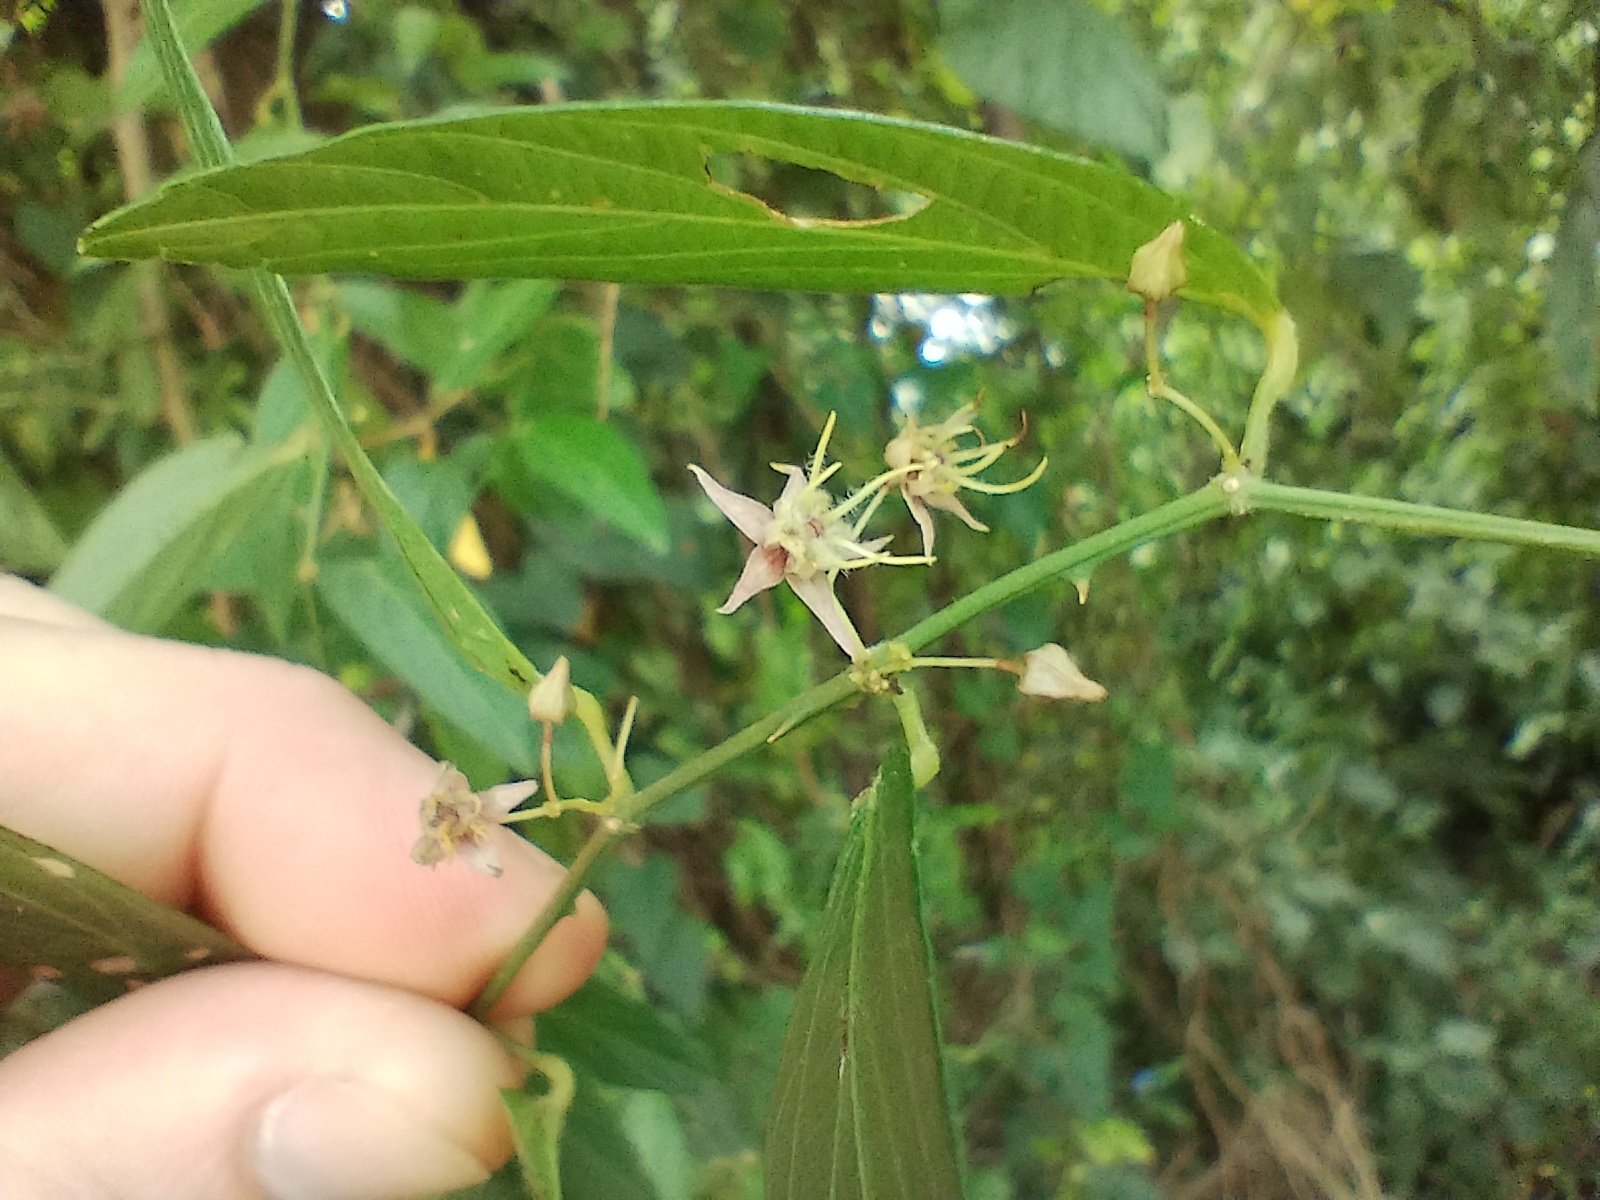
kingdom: Plantae
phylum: Tracheophyta
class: Magnoliopsida
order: Malvales
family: Malvaceae
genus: Byttneria
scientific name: Byttneria filipes
